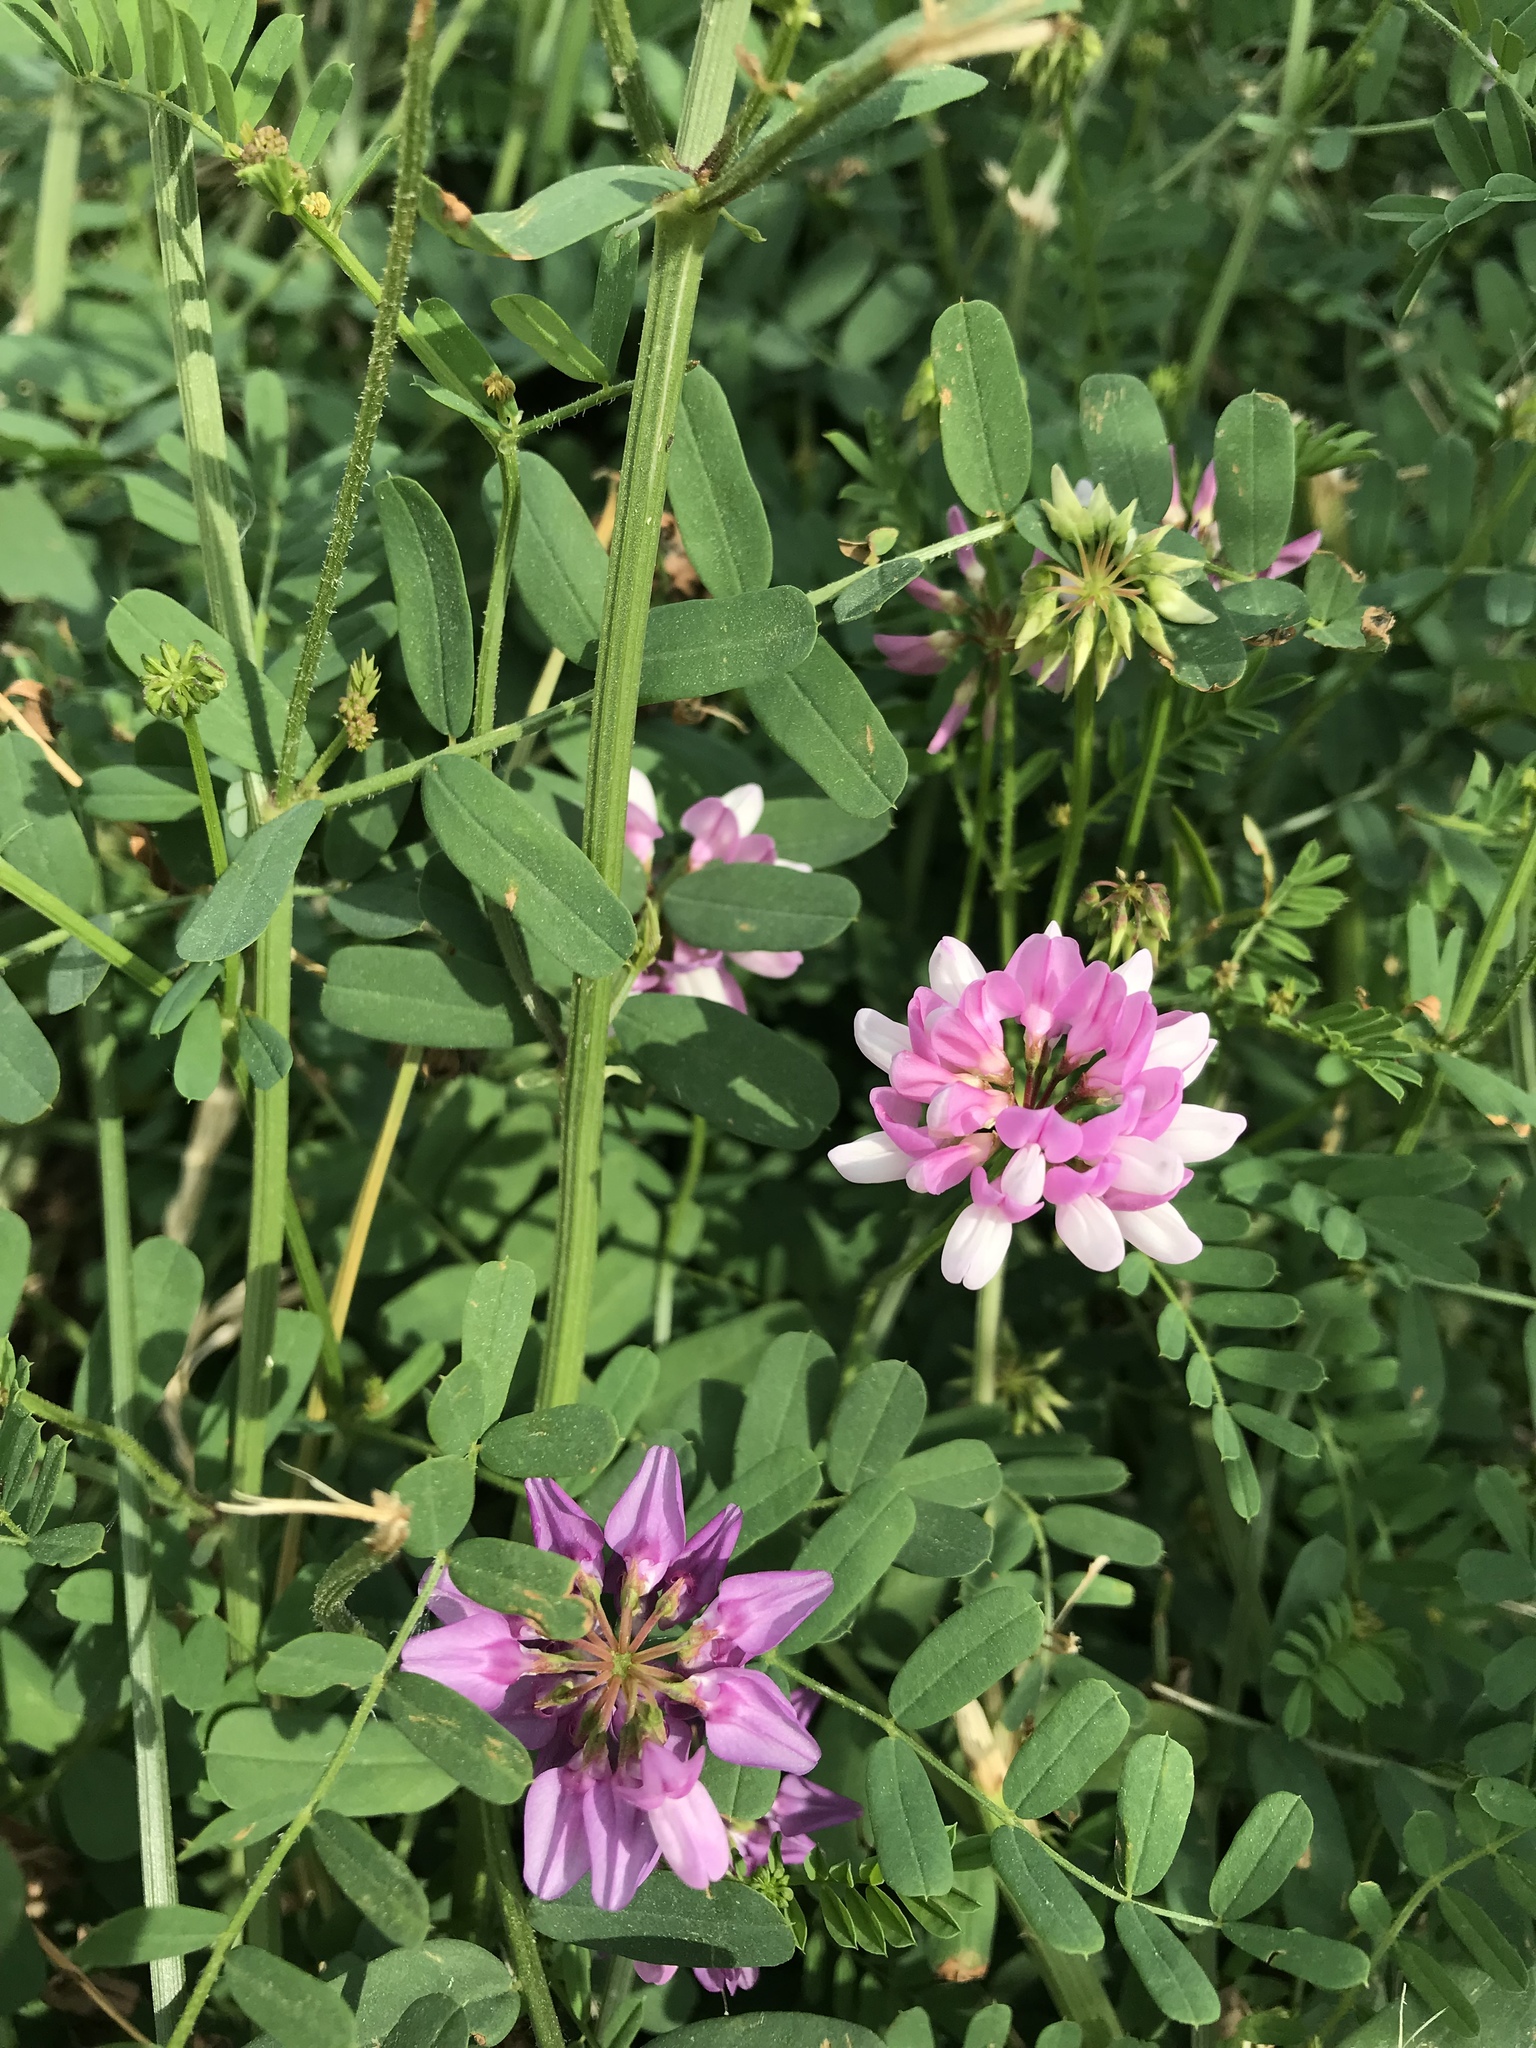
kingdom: Plantae
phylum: Tracheophyta
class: Magnoliopsida
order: Fabales
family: Fabaceae
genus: Coronilla
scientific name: Coronilla varia
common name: Crownvetch
